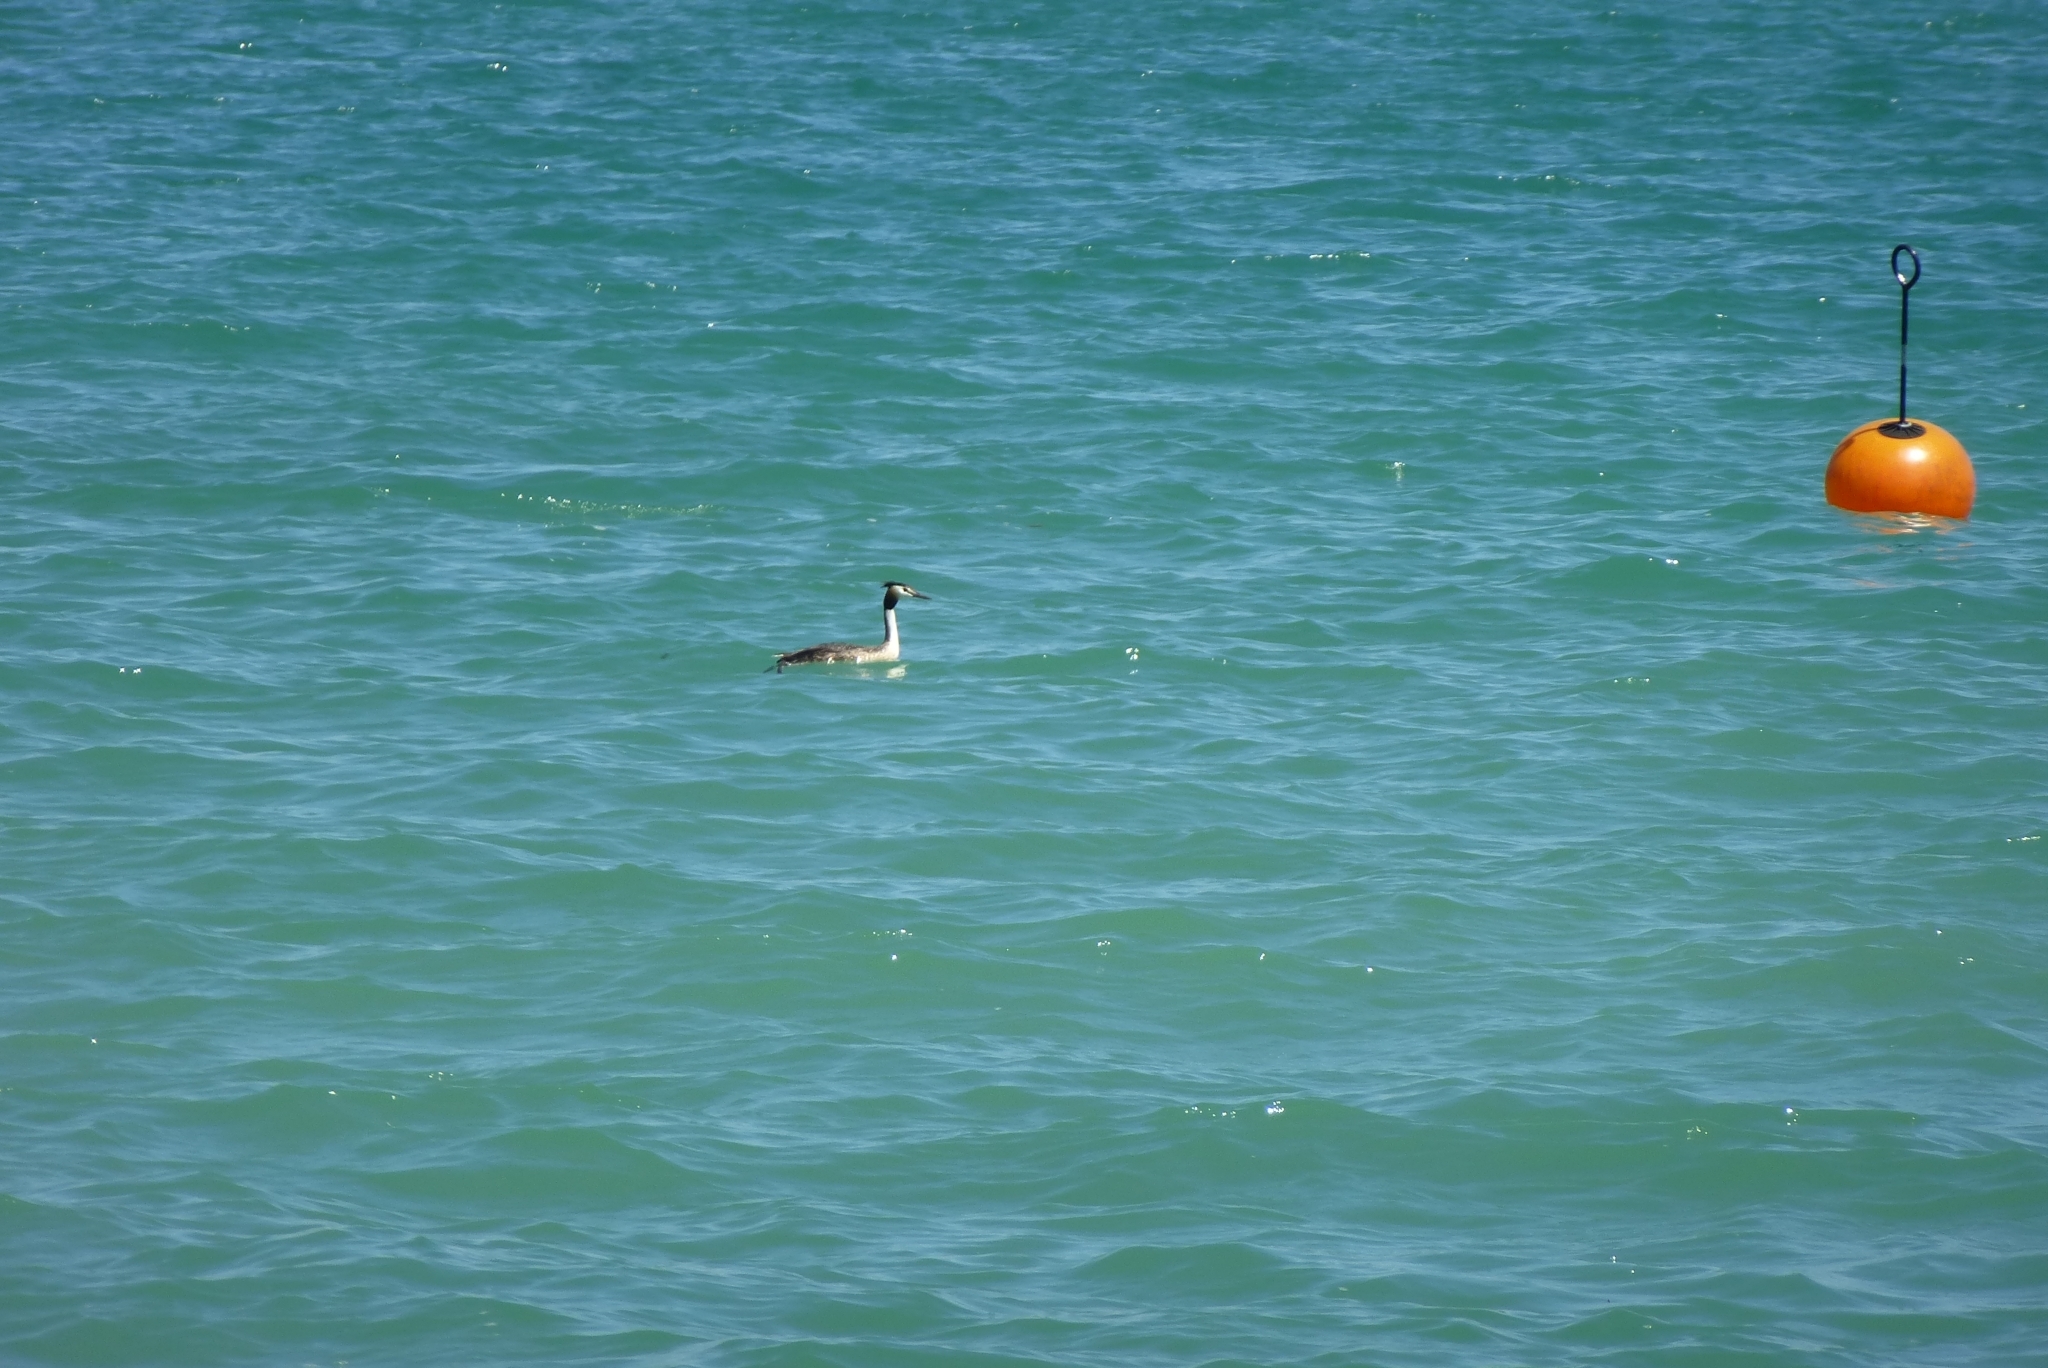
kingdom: Animalia
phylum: Chordata
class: Aves
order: Podicipediformes
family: Podicipedidae
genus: Podiceps
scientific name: Podiceps cristatus
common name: Great crested grebe
